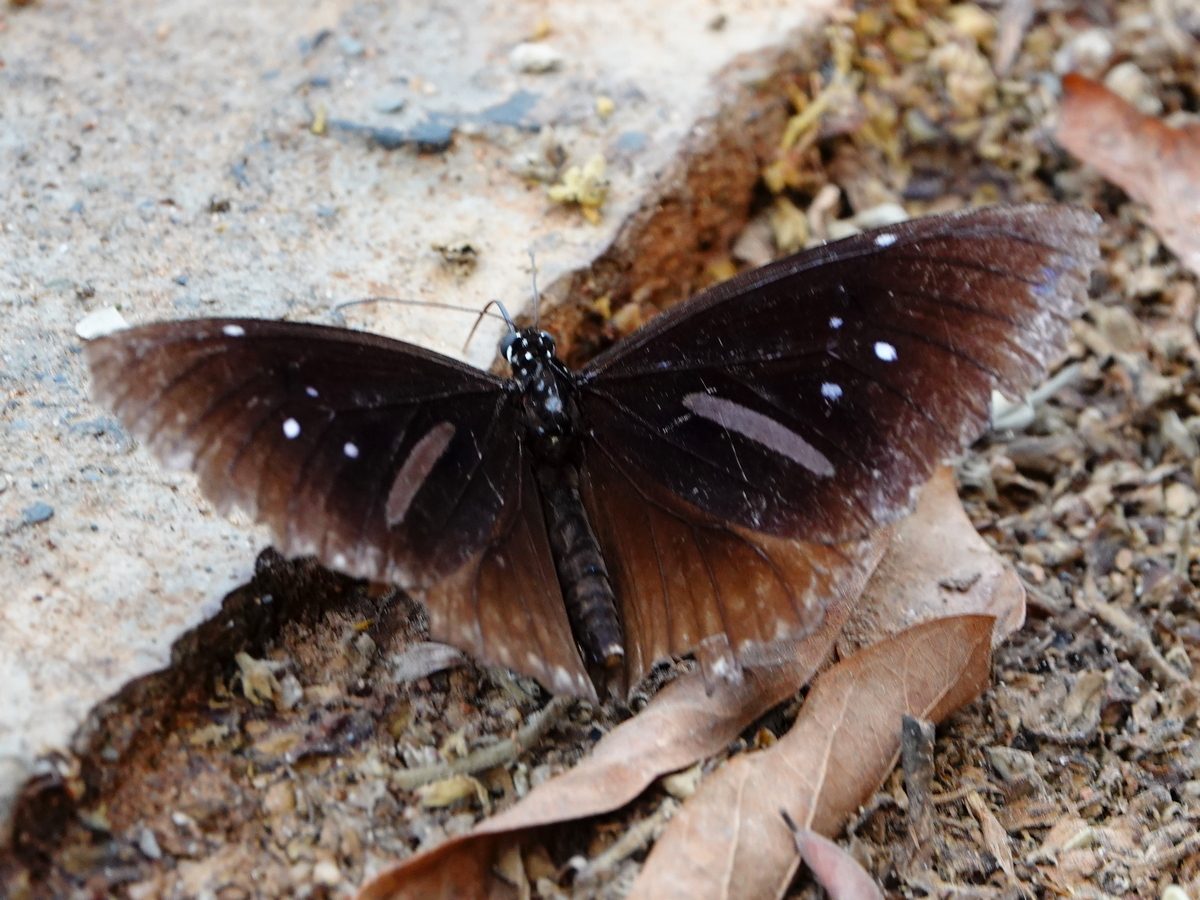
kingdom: Animalia
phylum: Arthropoda
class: Insecta
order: Lepidoptera
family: Nymphalidae
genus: Euploea
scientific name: Euploea sylvester
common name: Double-branded crow butterfly
